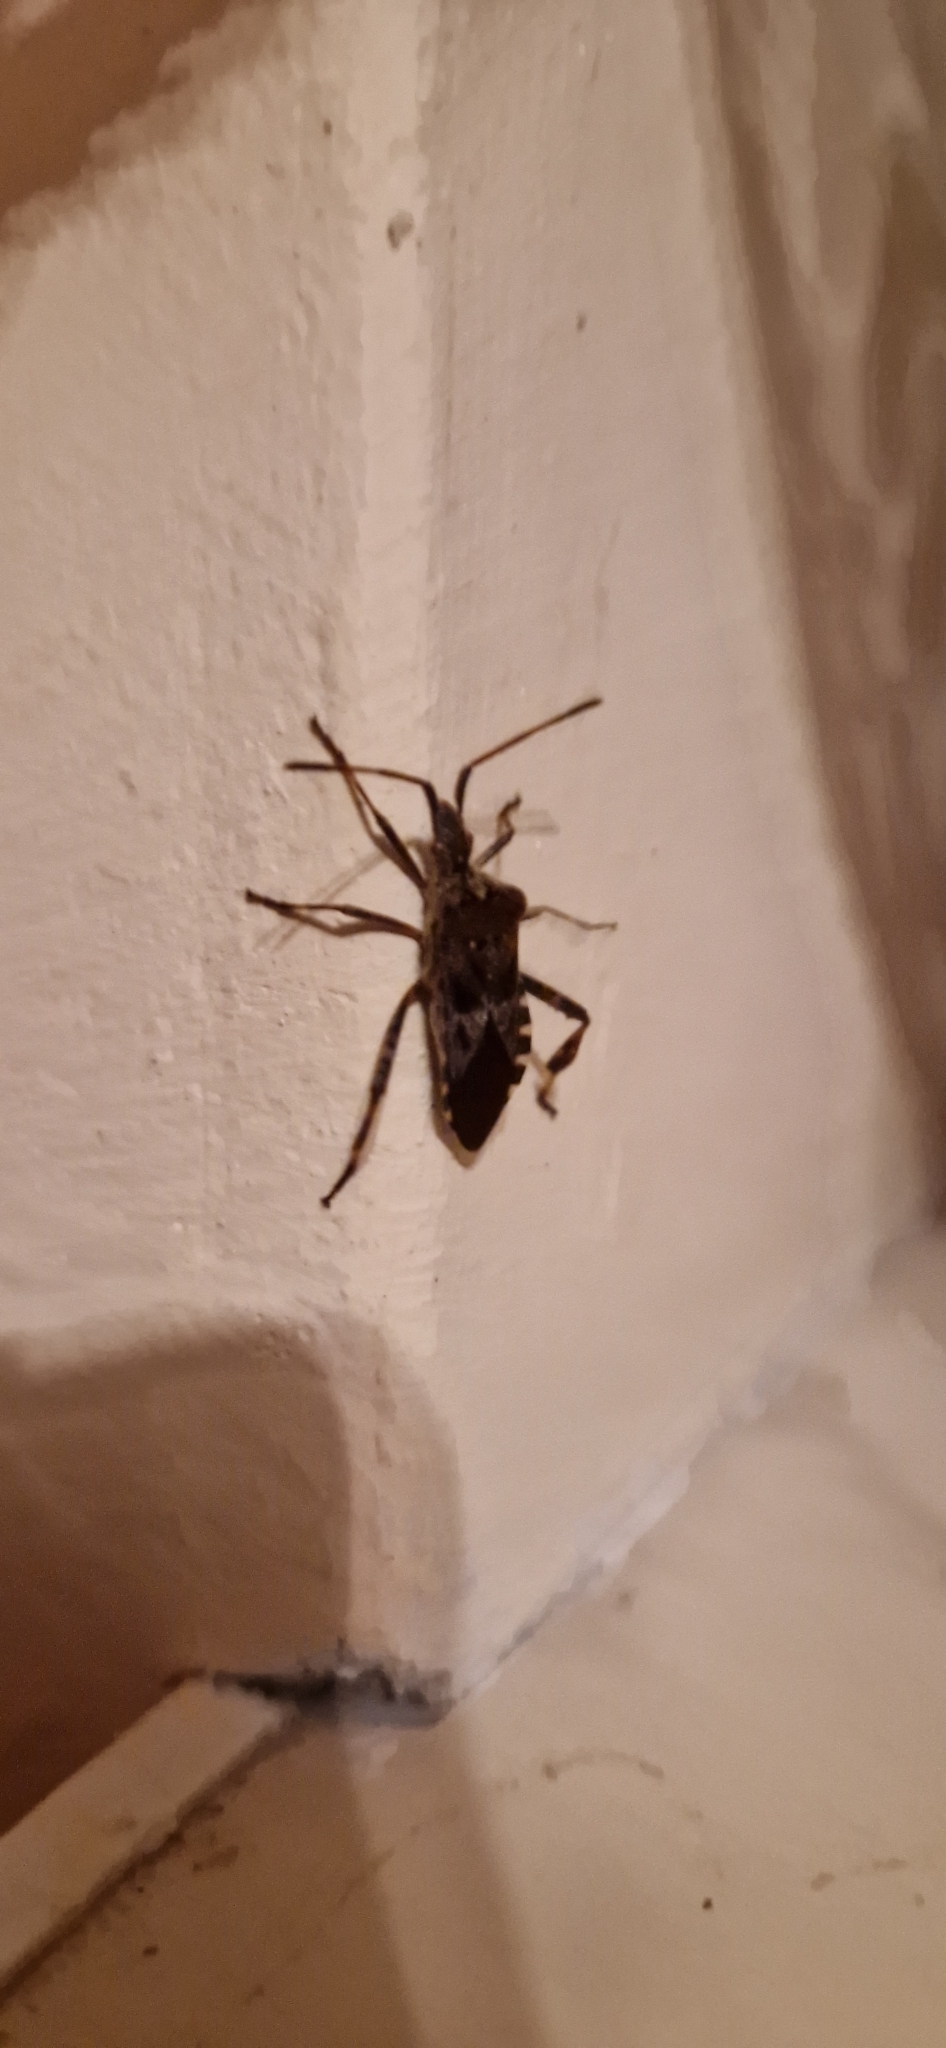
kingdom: Animalia
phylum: Arthropoda
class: Insecta
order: Hemiptera
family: Coreidae
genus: Leptoglossus
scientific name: Leptoglossus occidentalis
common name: Western conifer-seed bug
